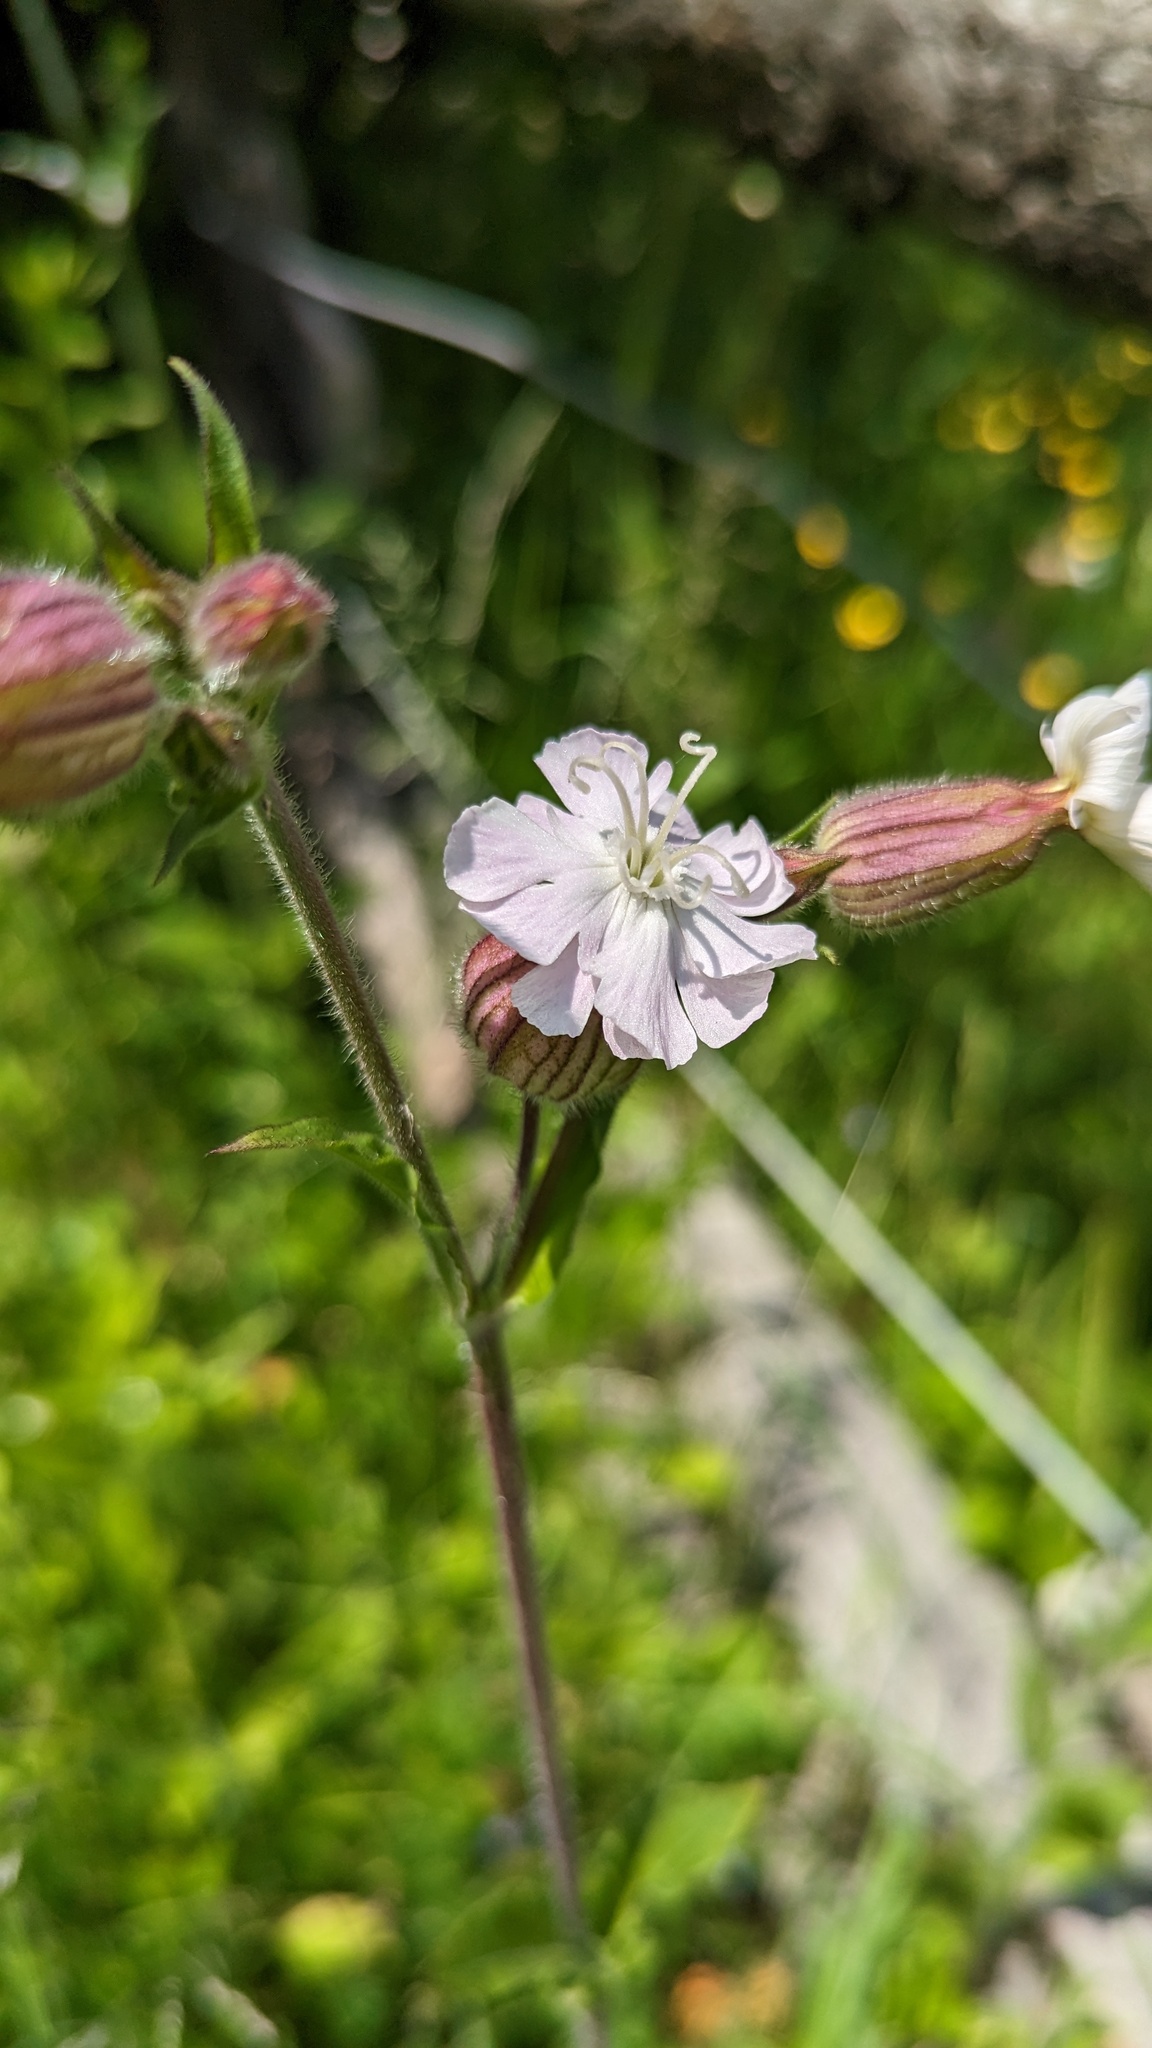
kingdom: Plantae
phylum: Tracheophyta
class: Magnoliopsida
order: Caryophyllales
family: Caryophyllaceae
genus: Silene
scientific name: Silene latifolia
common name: White campion
